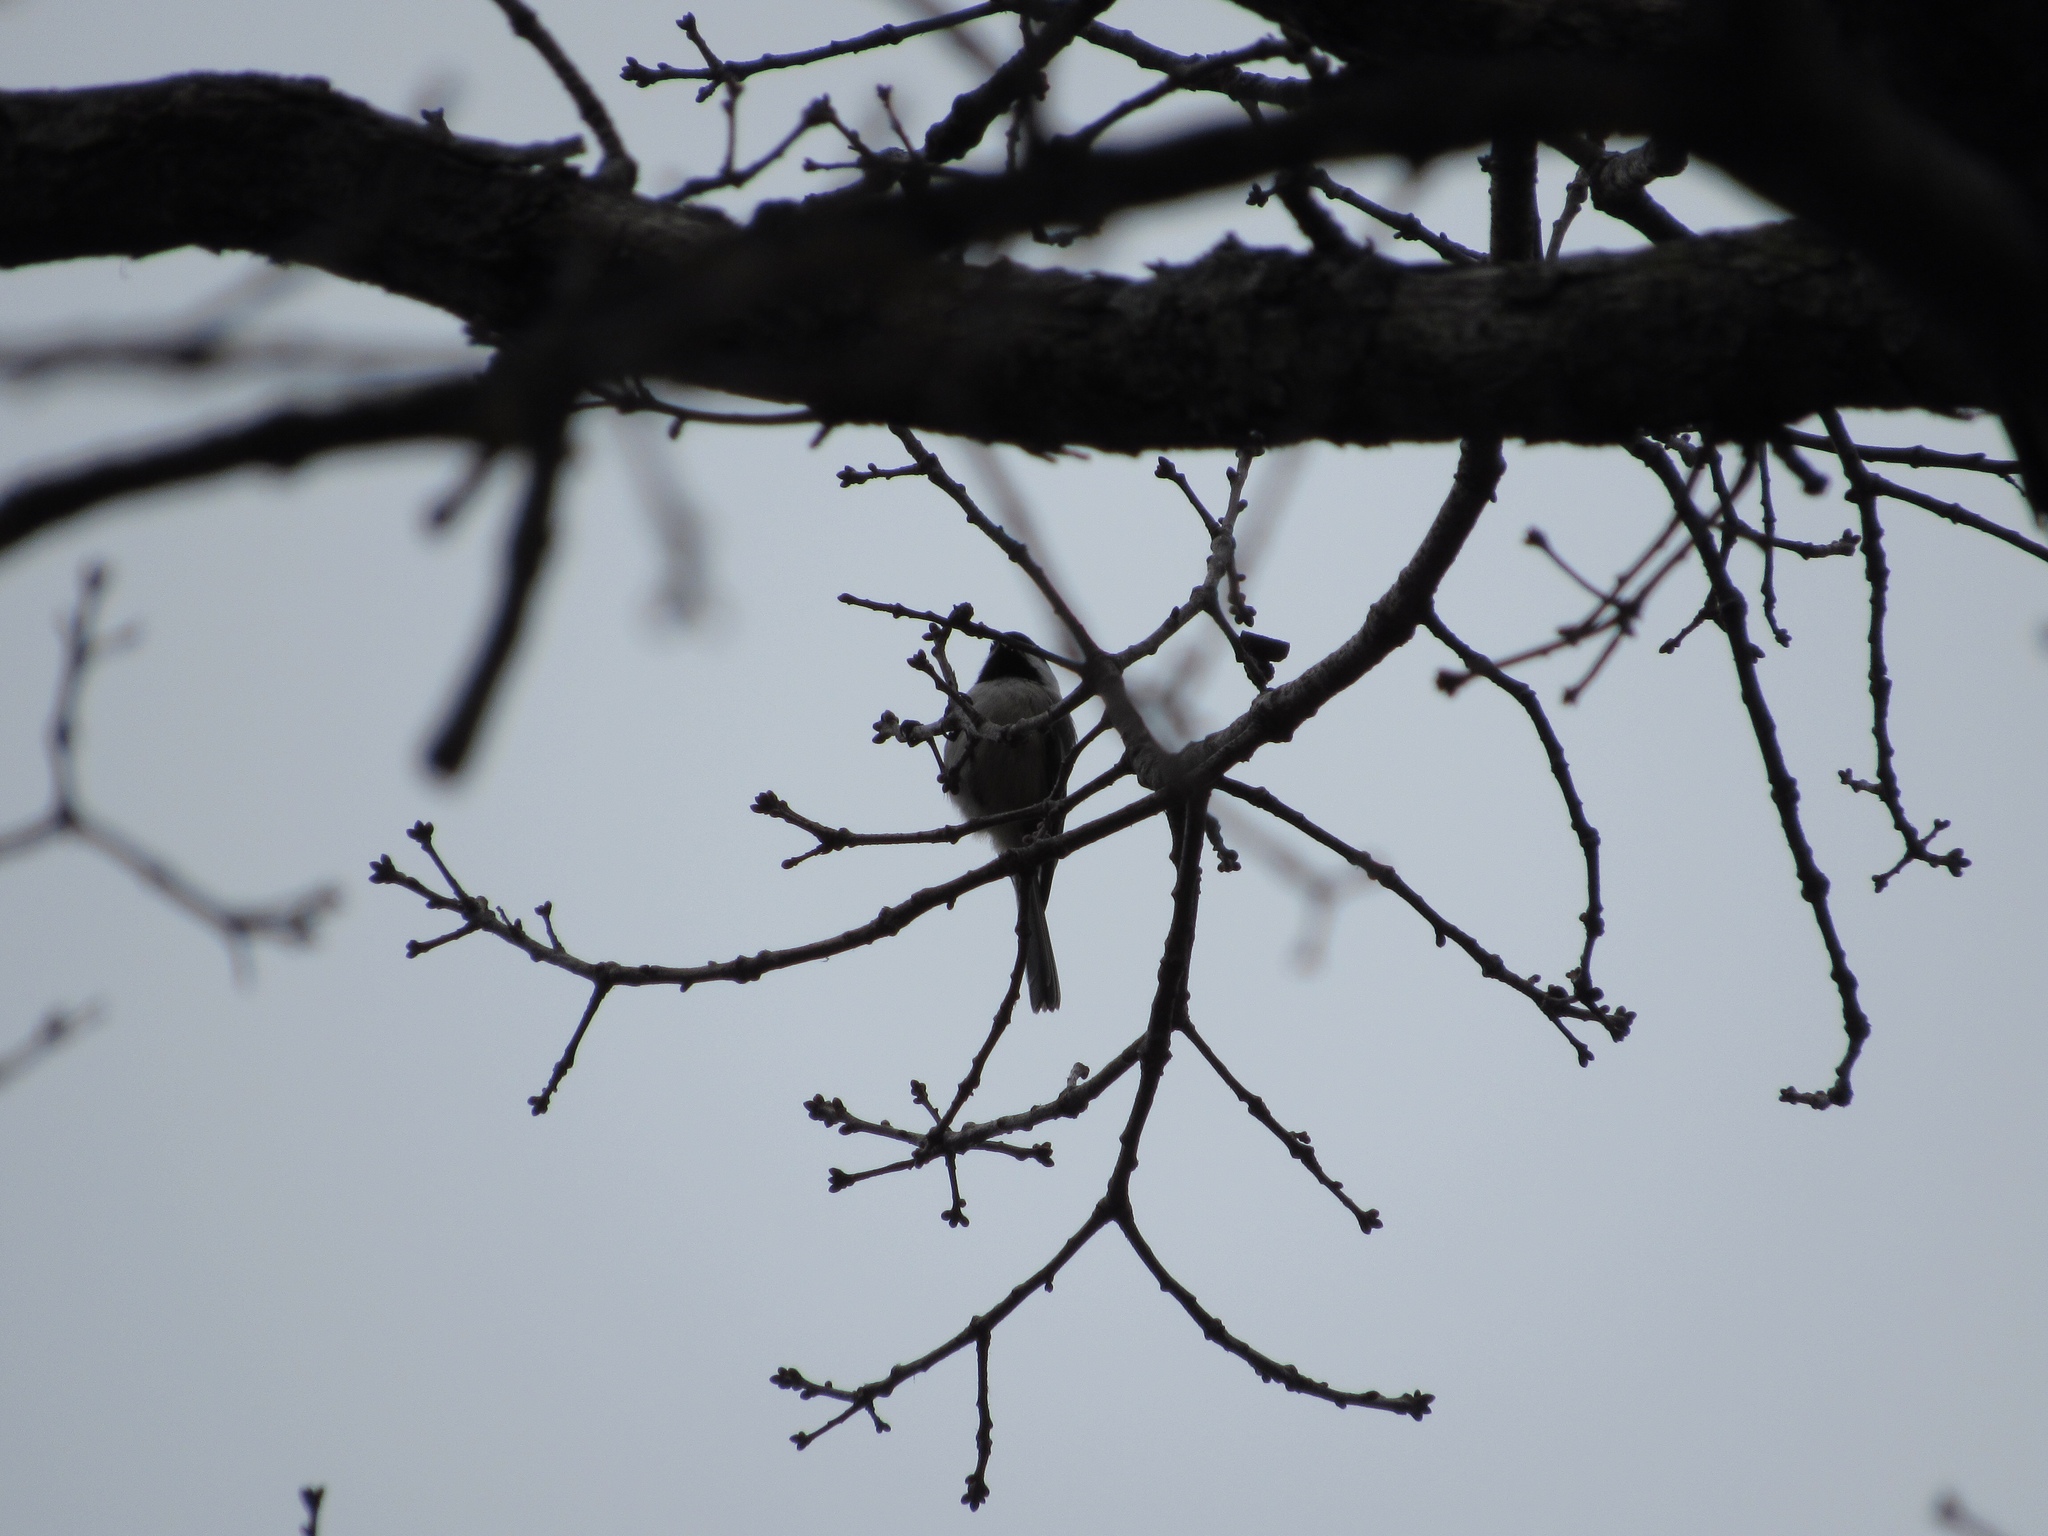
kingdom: Animalia
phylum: Chordata
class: Aves
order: Passeriformes
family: Paridae
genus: Poecile
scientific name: Poecile atricapillus
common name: Black-capped chickadee
